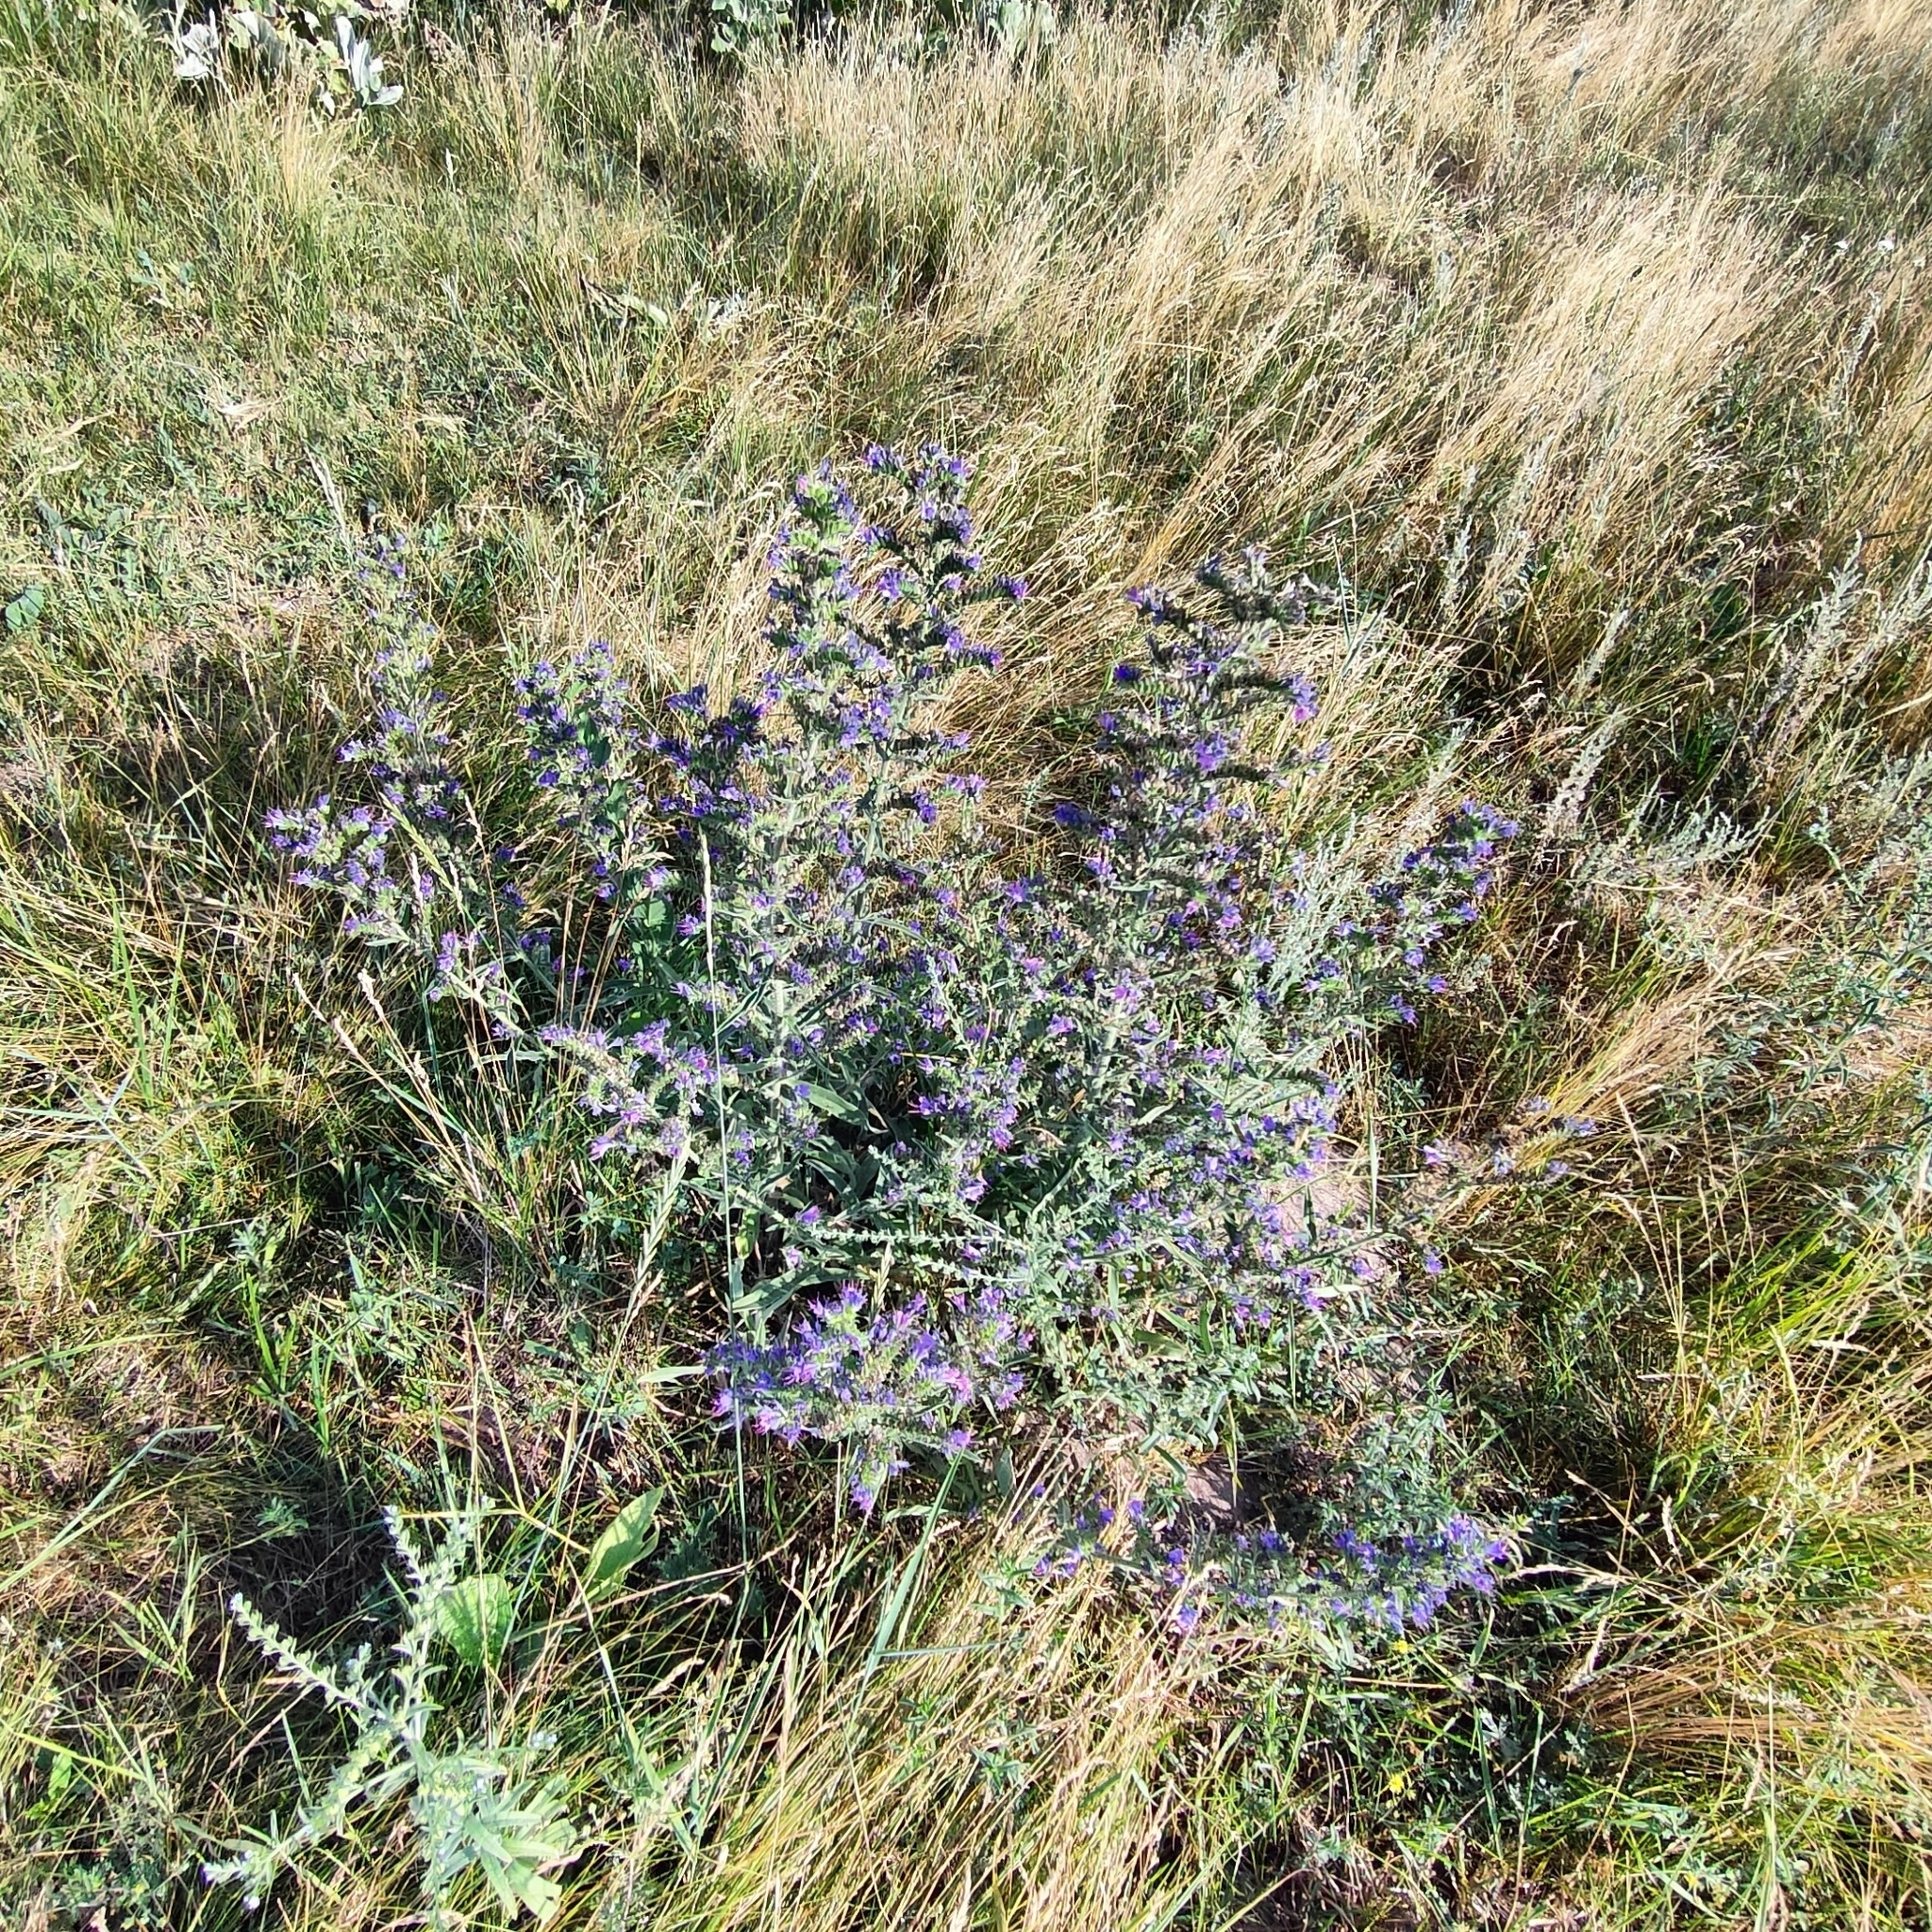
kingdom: Plantae
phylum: Tracheophyta
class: Magnoliopsida
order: Boraginales
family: Boraginaceae
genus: Echium
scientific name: Echium vulgare
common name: Common viper's bugloss
